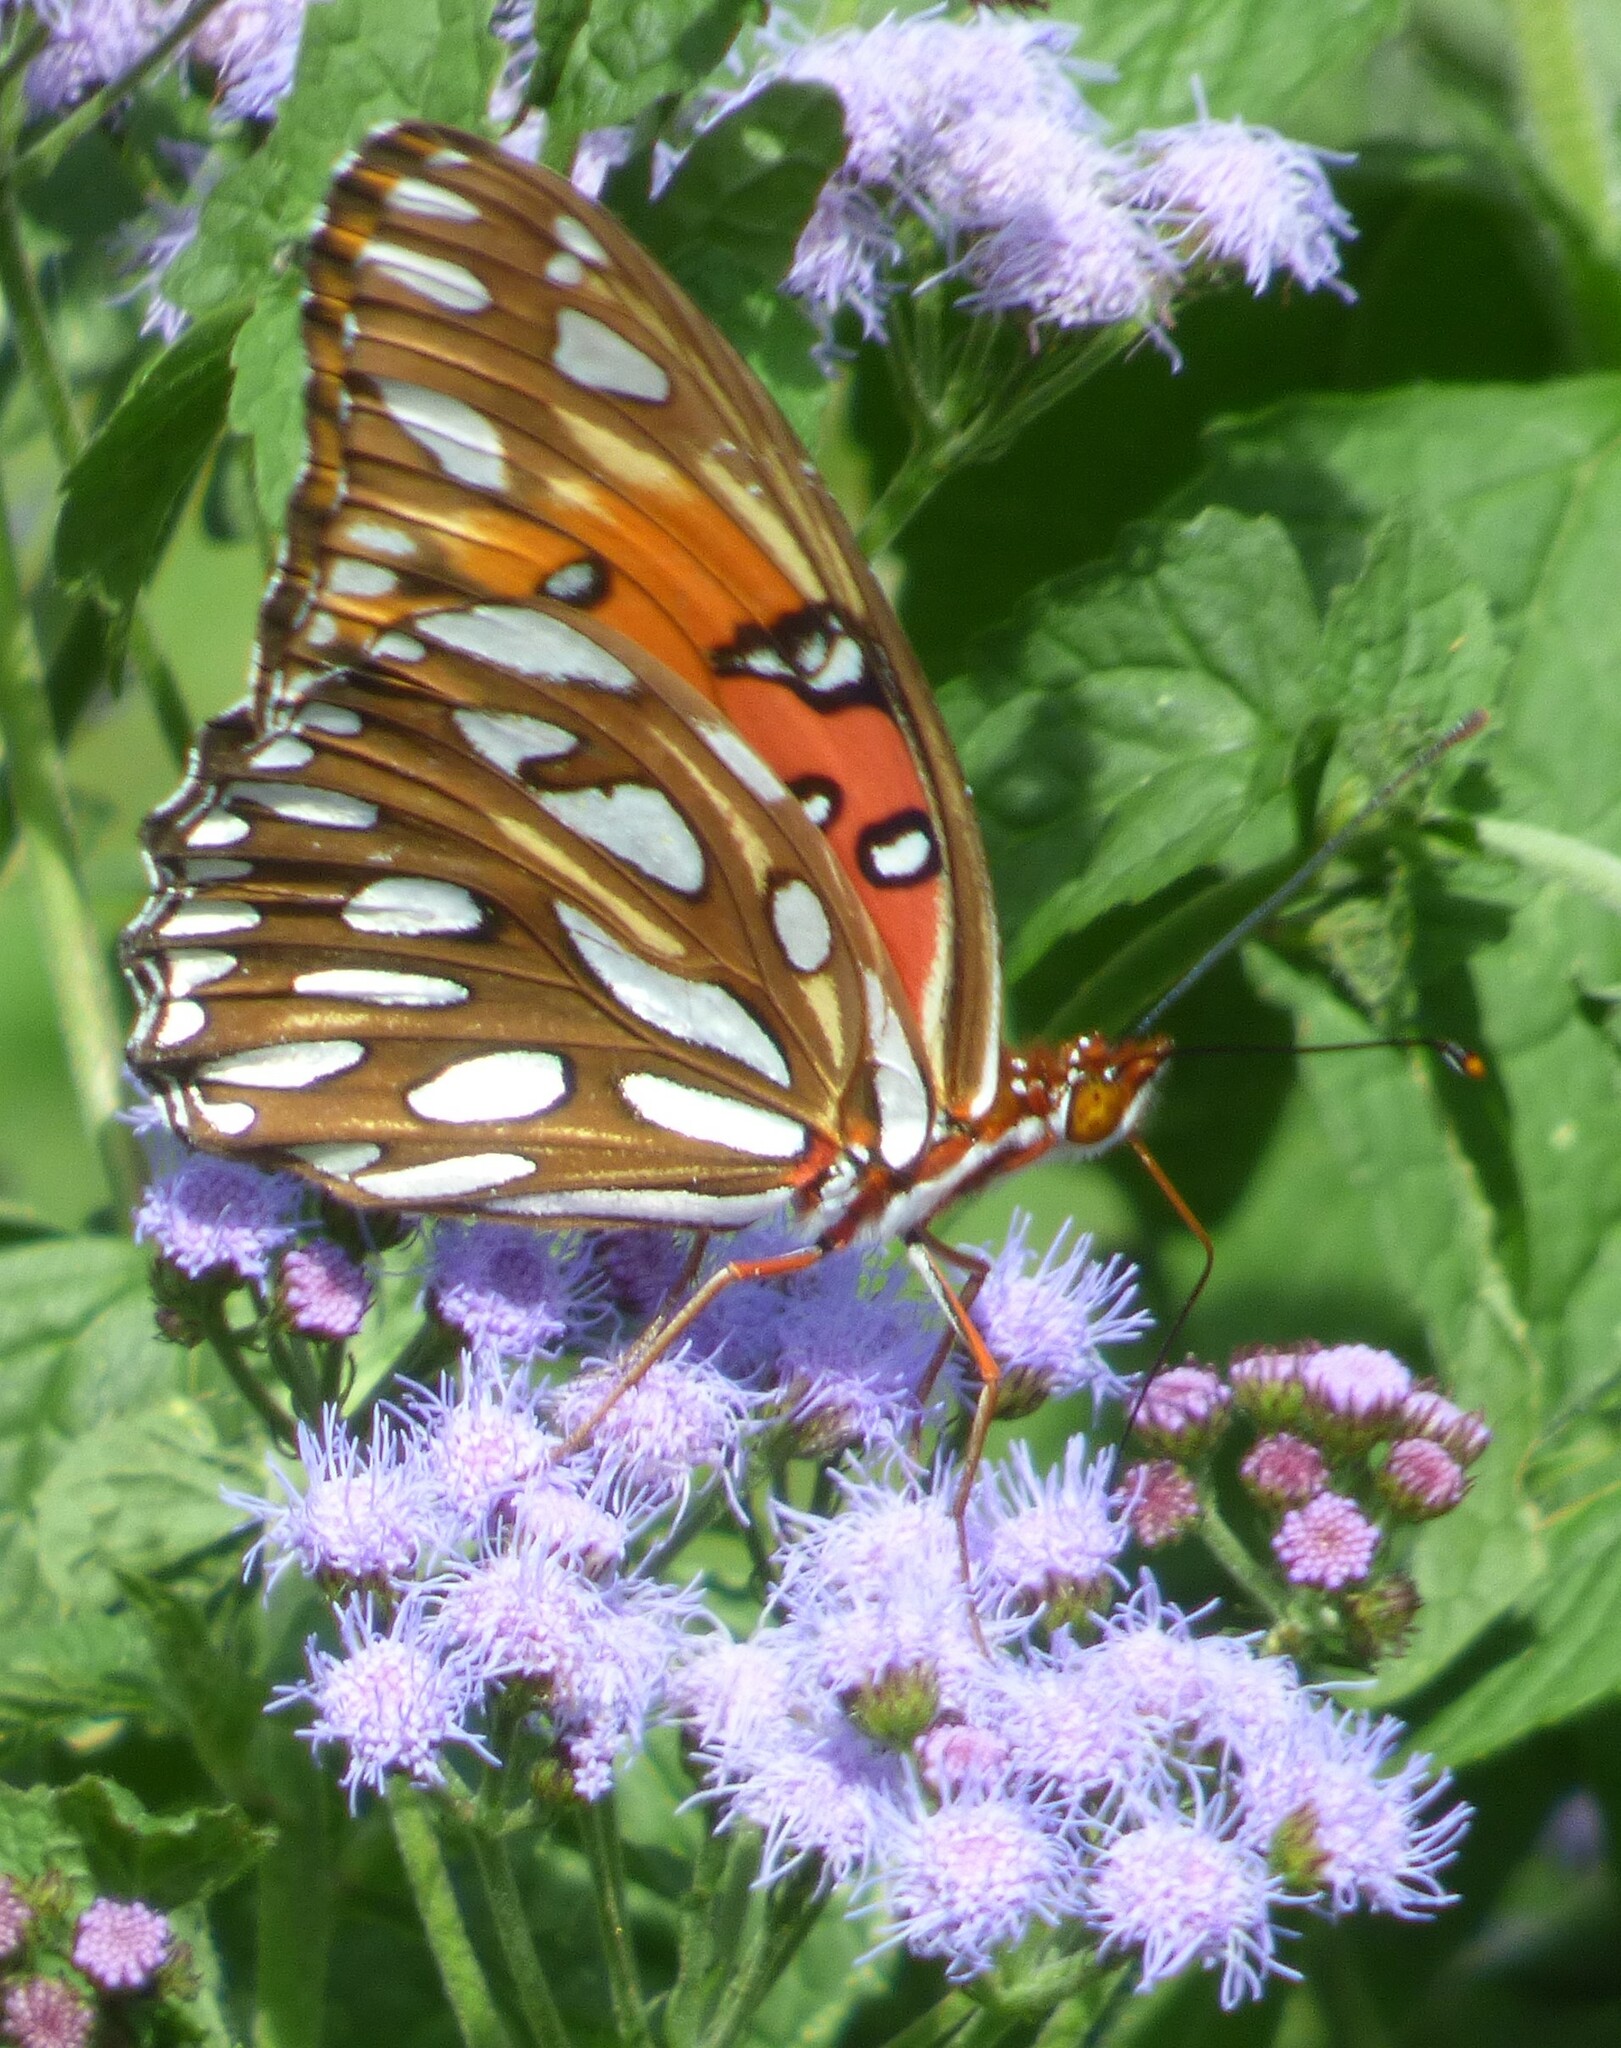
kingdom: Animalia
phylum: Arthropoda
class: Insecta
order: Lepidoptera
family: Nymphalidae
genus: Dione
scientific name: Dione vanillae
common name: Gulf fritillary
